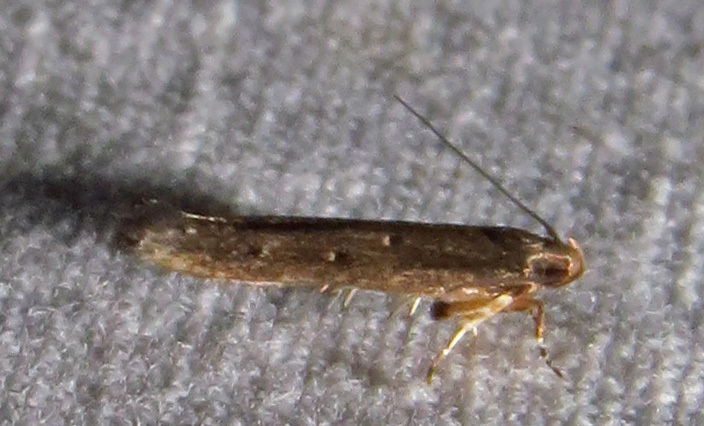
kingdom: Animalia
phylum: Arthropoda
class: Insecta
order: Lepidoptera
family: Cosmopterigidae
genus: Ithome
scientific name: Ithome erransella
